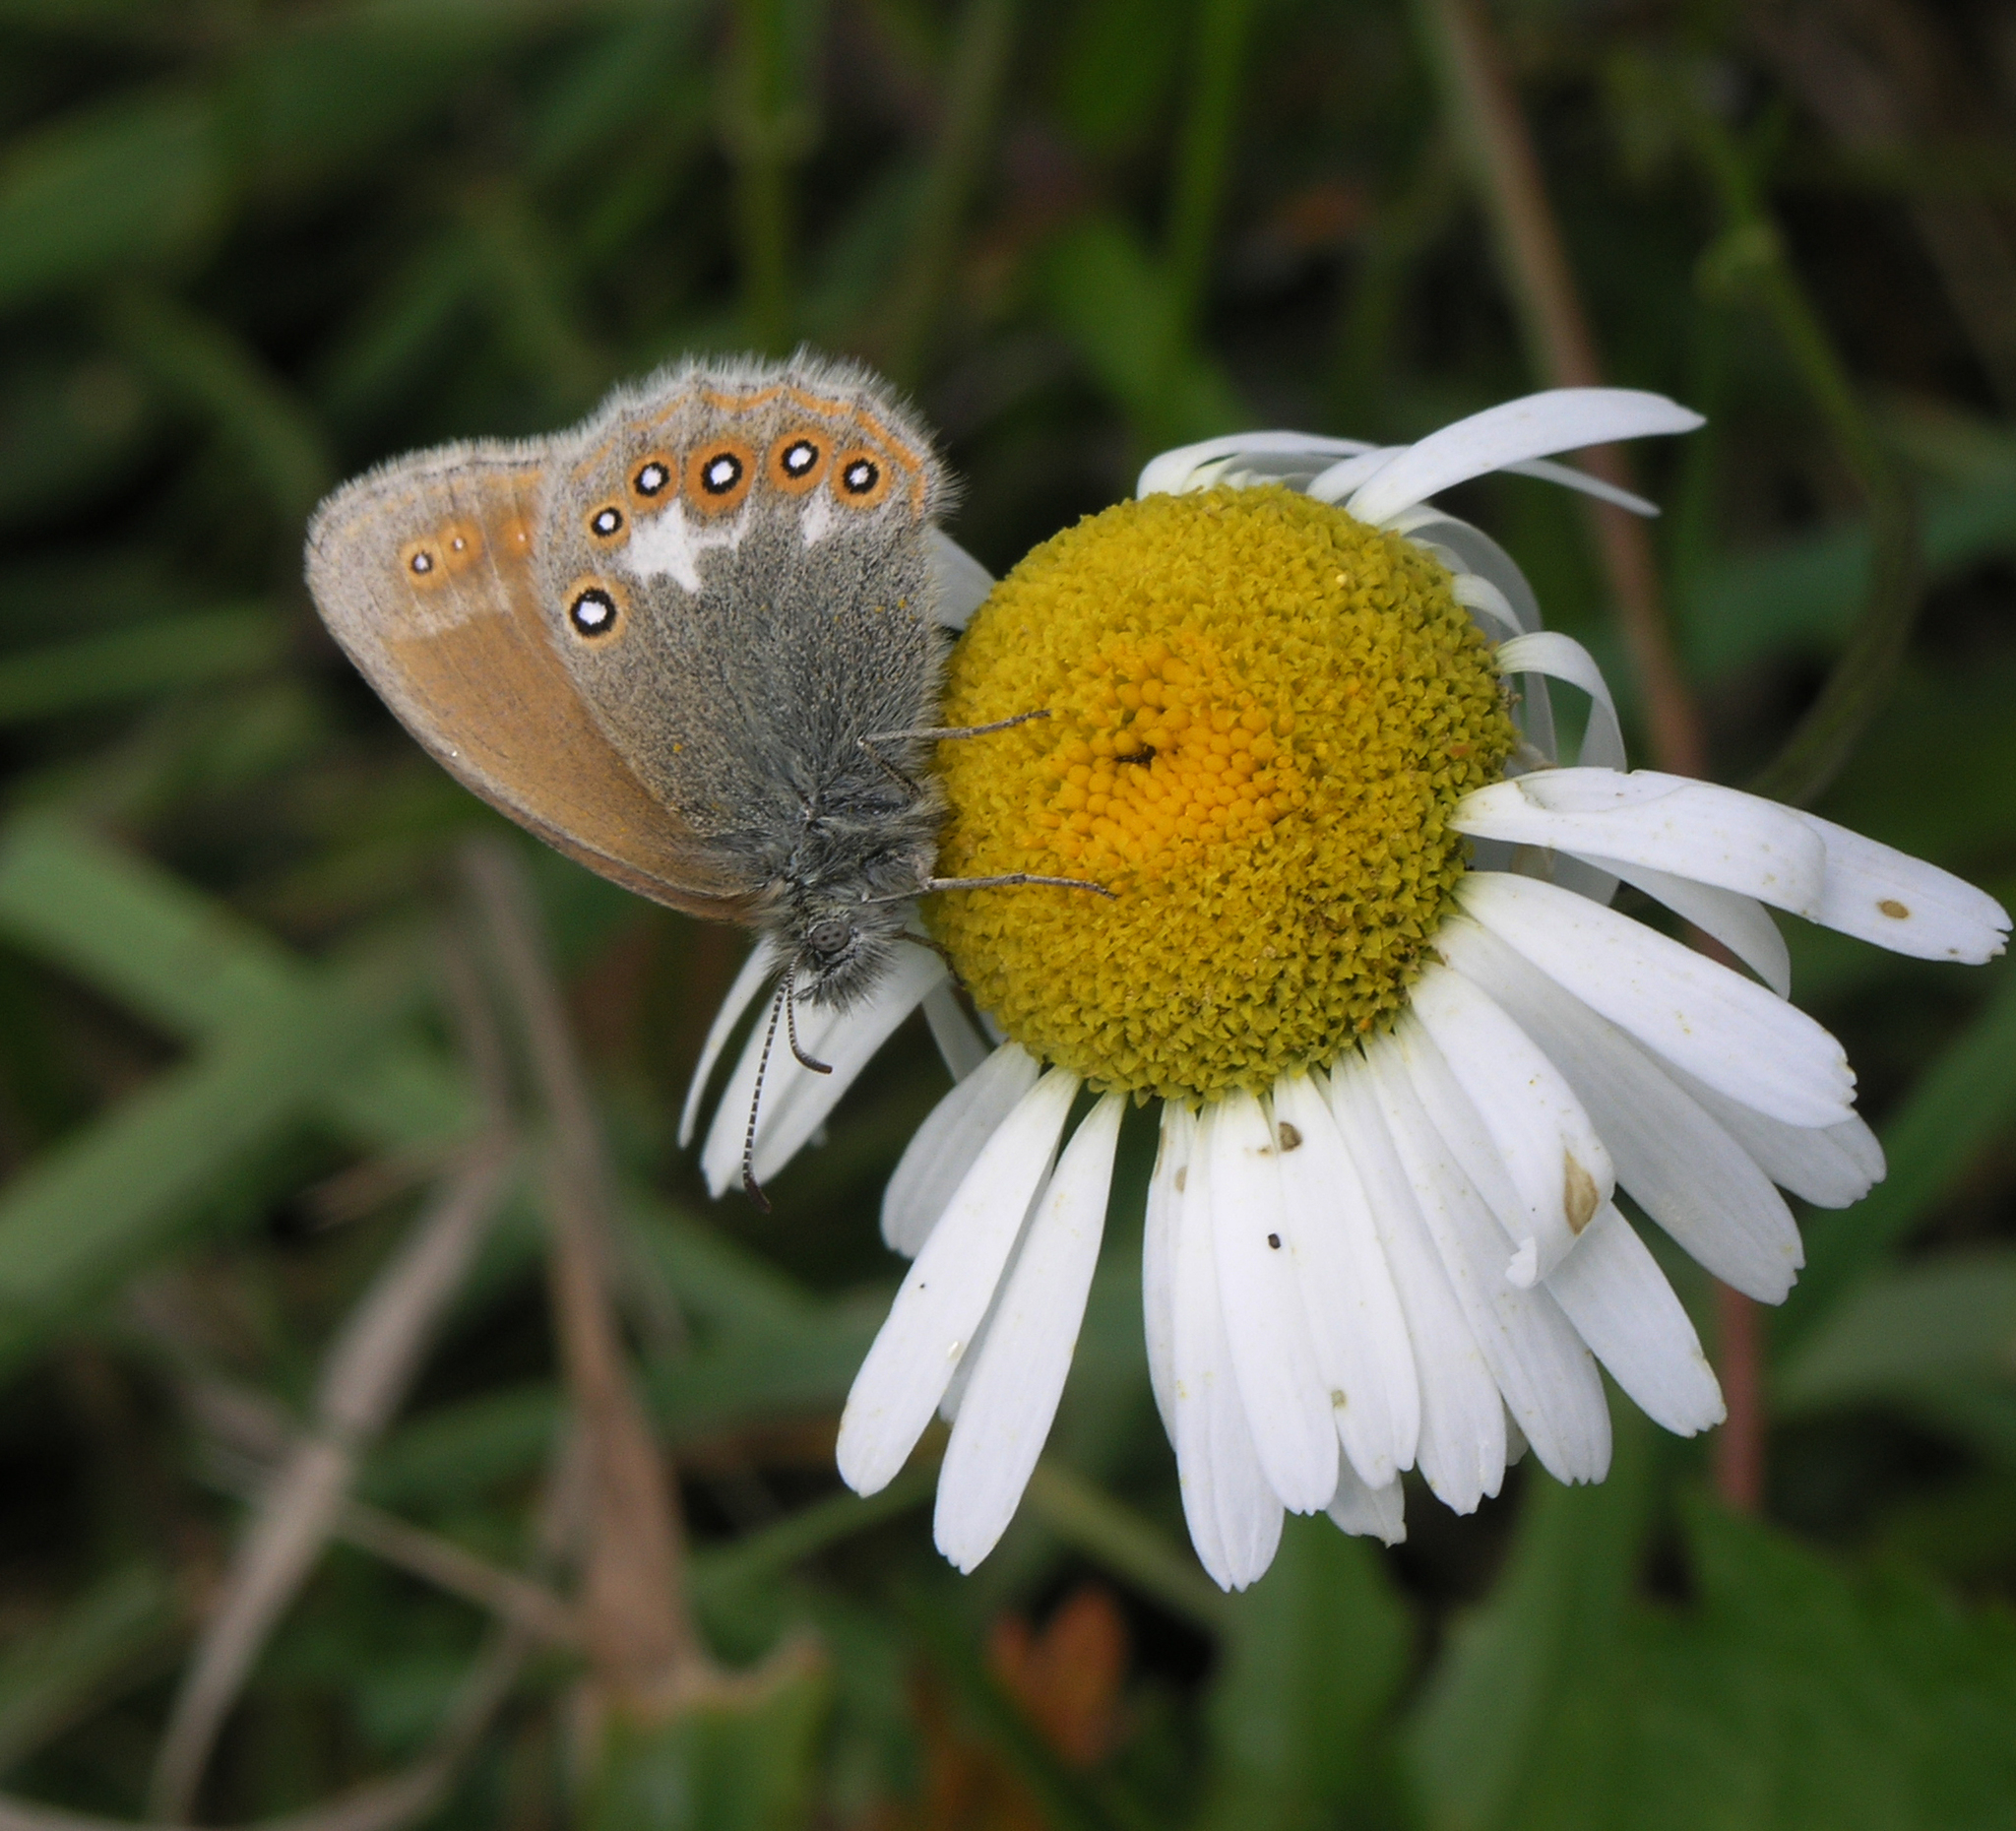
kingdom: Animalia
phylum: Arthropoda
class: Insecta
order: Lepidoptera
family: Nymphalidae
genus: Coenonympha
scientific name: Coenonympha iphis
